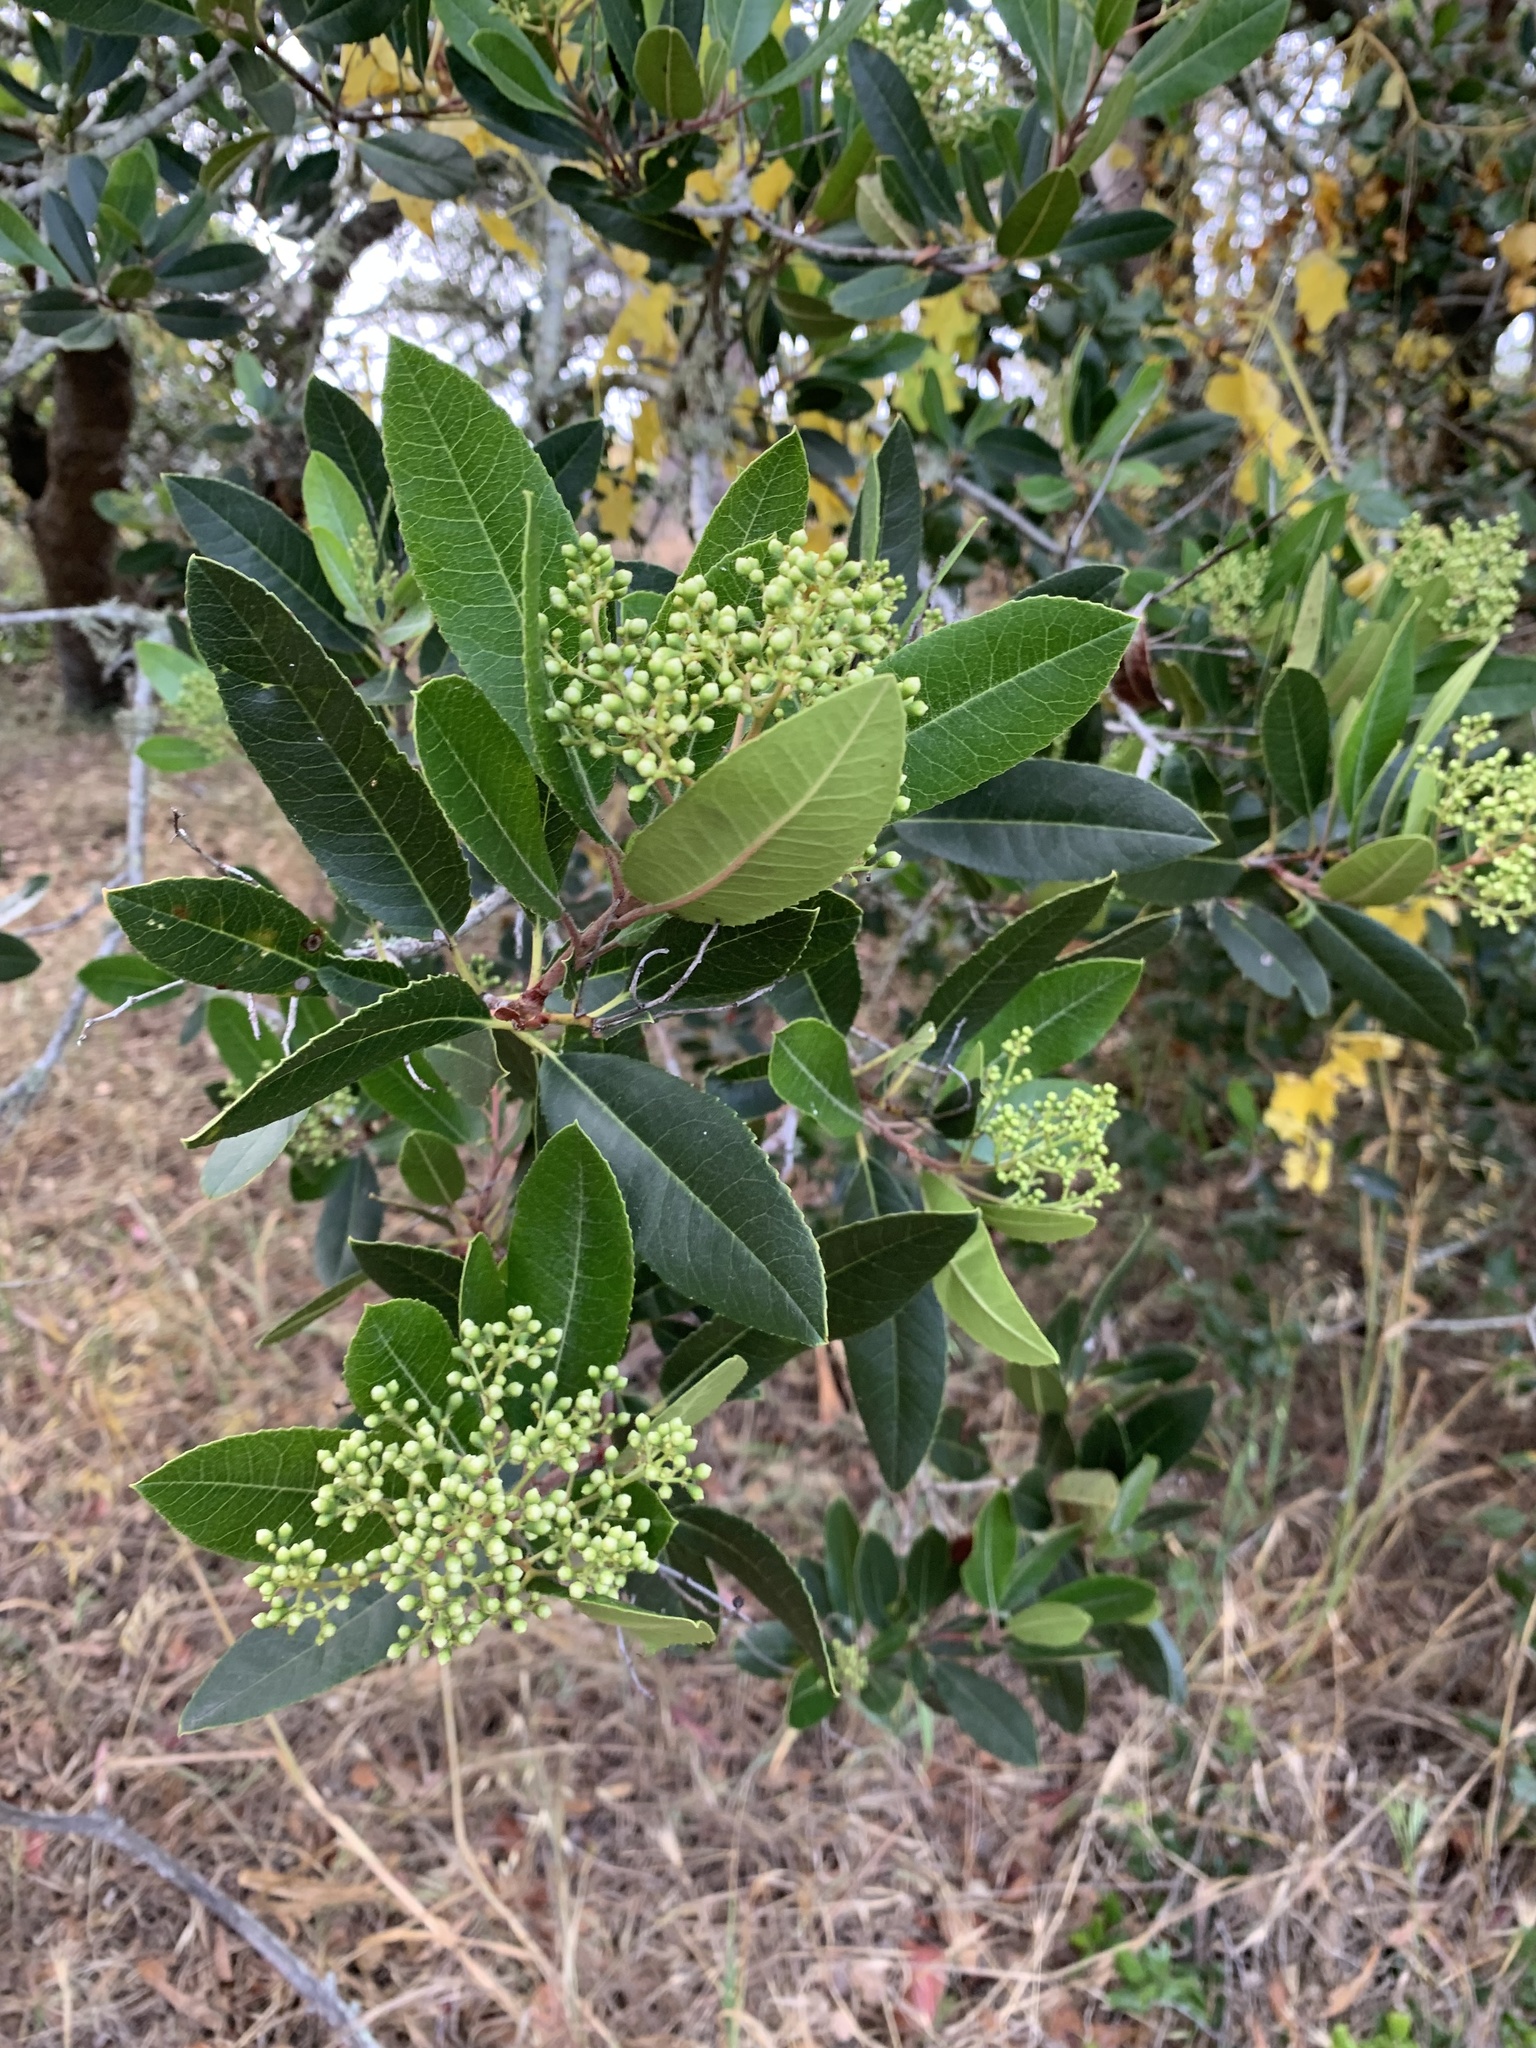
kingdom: Plantae
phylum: Tracheophyta
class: Magnoliopsida
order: Rosales
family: Rosaceae
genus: Heteromeles
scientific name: Heteromeles arbutifolia
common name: California-holly
